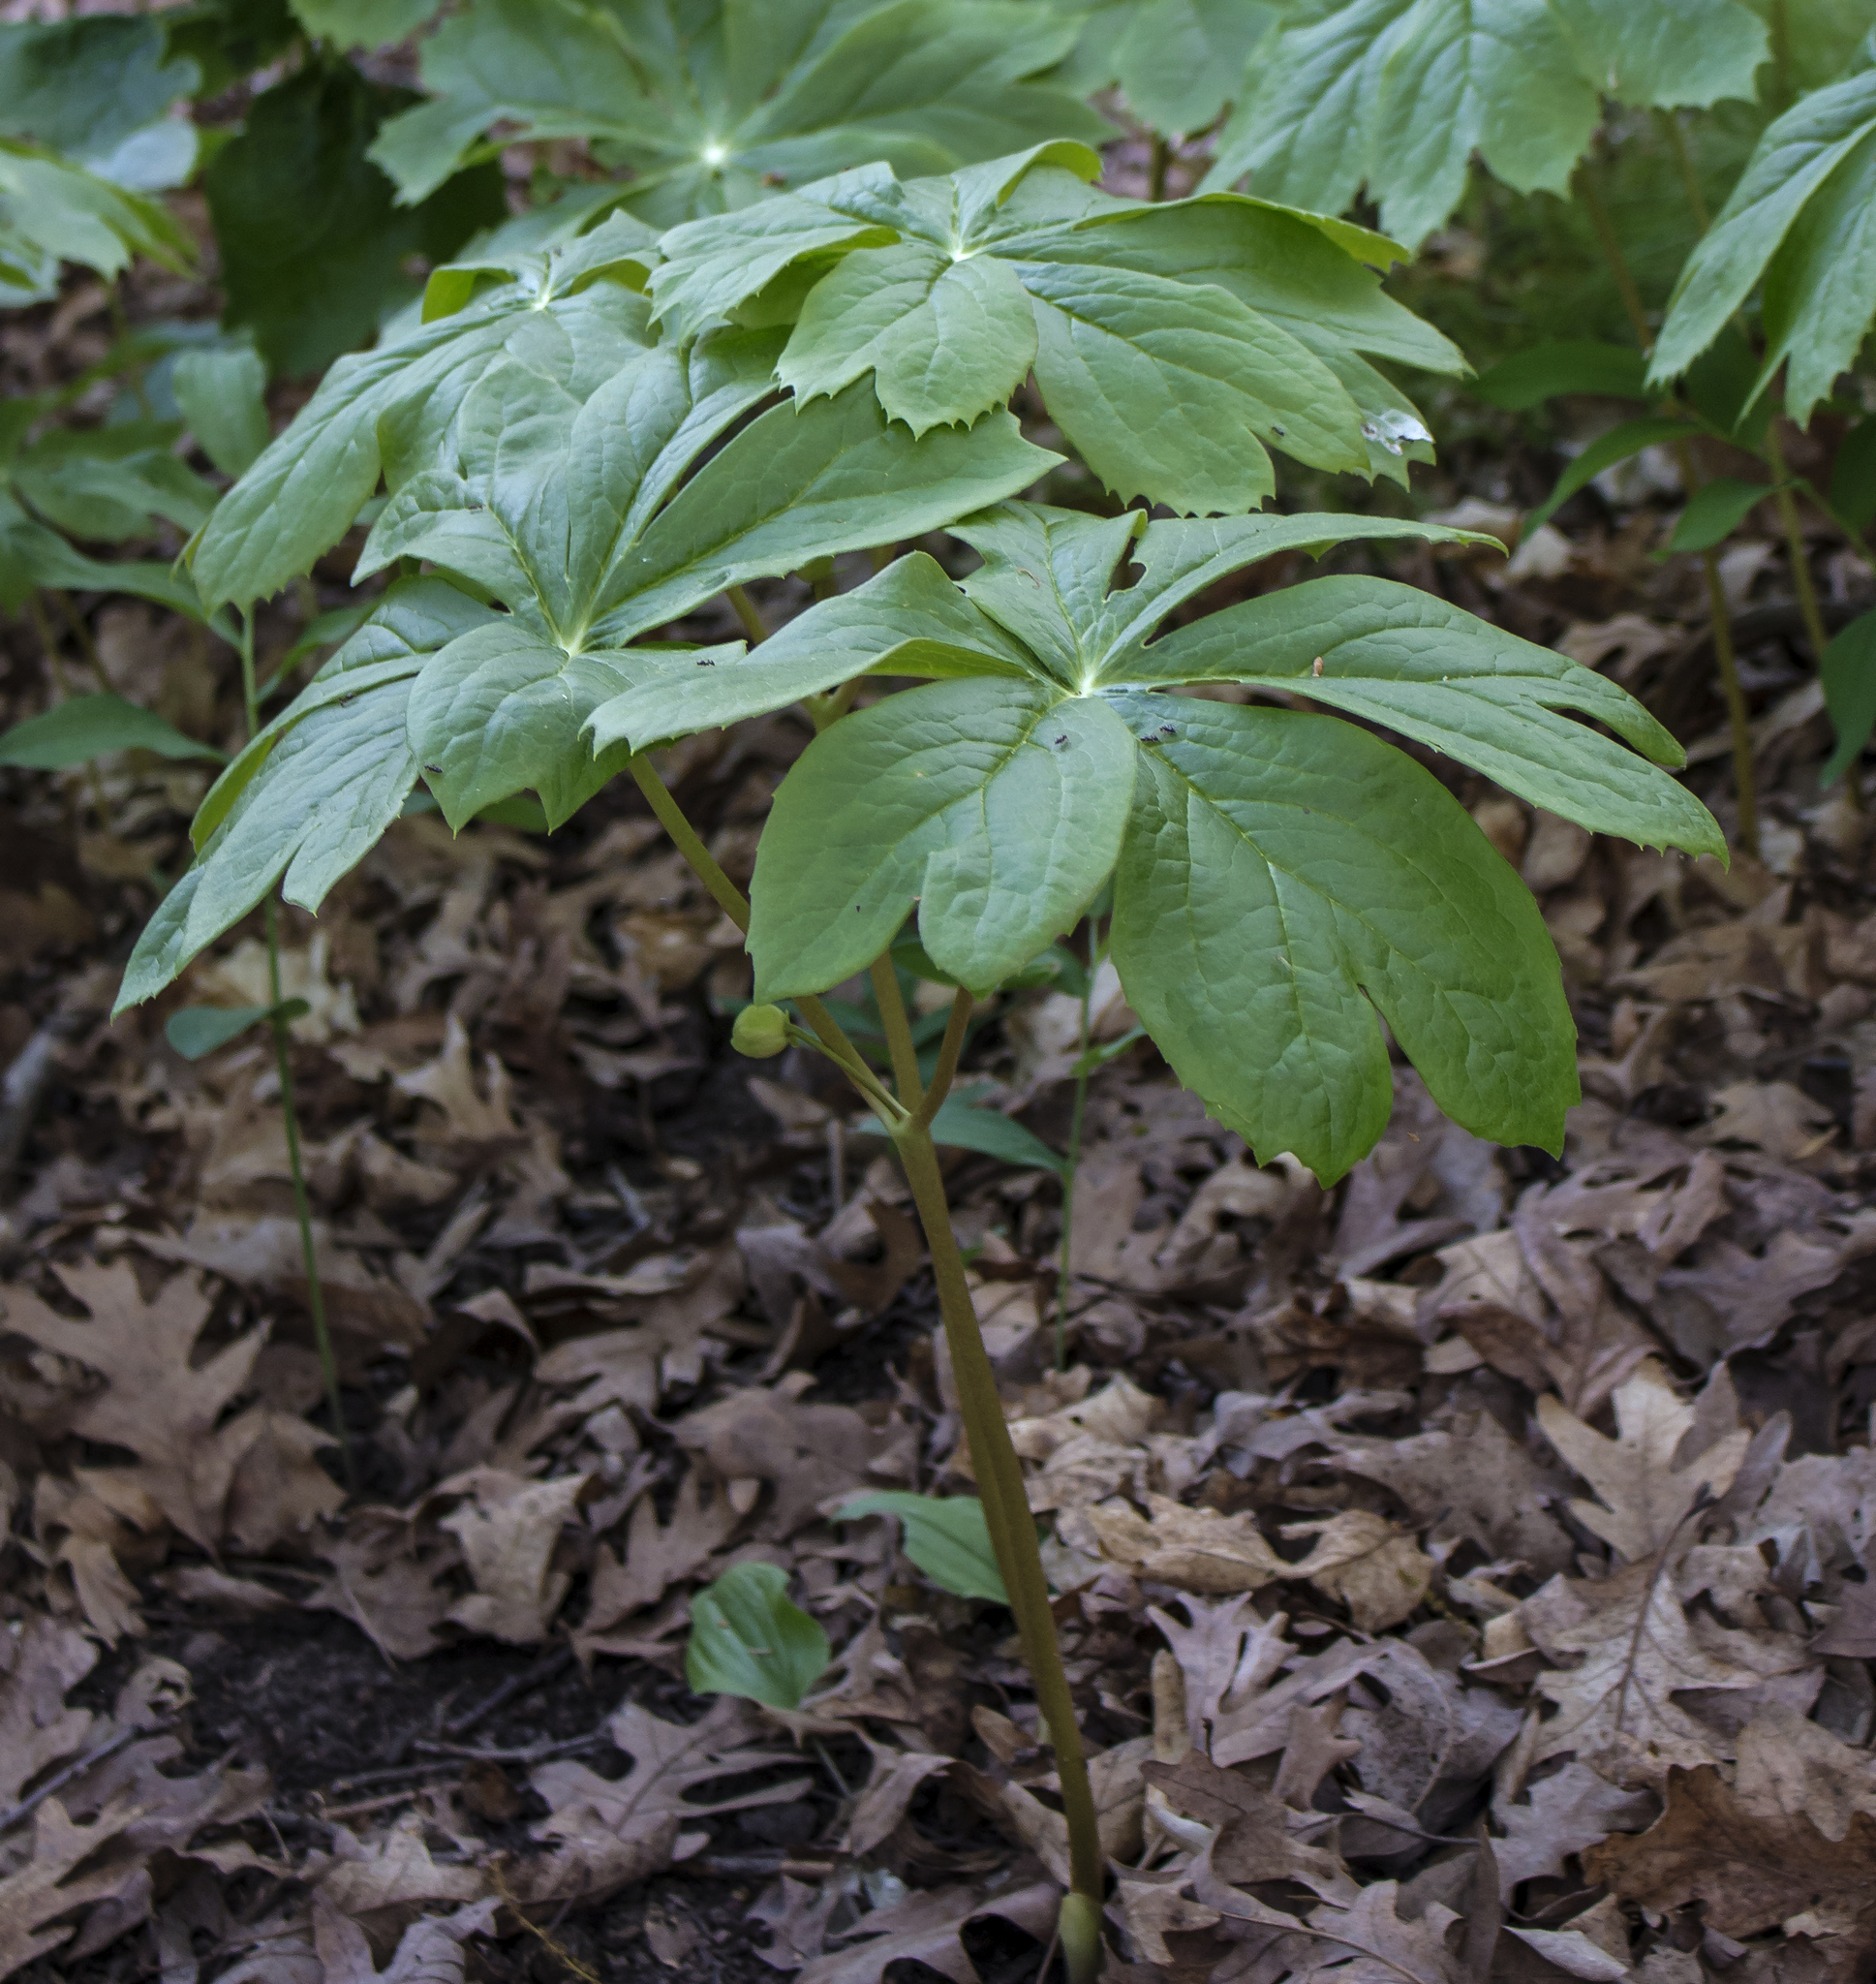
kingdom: Plantae
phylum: Tracheophyta
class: Magnoliopsida
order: Ranunculales
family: Berberidaceae
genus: Podophyllum
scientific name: Podophyllum peltatum
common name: Wild mandrake
